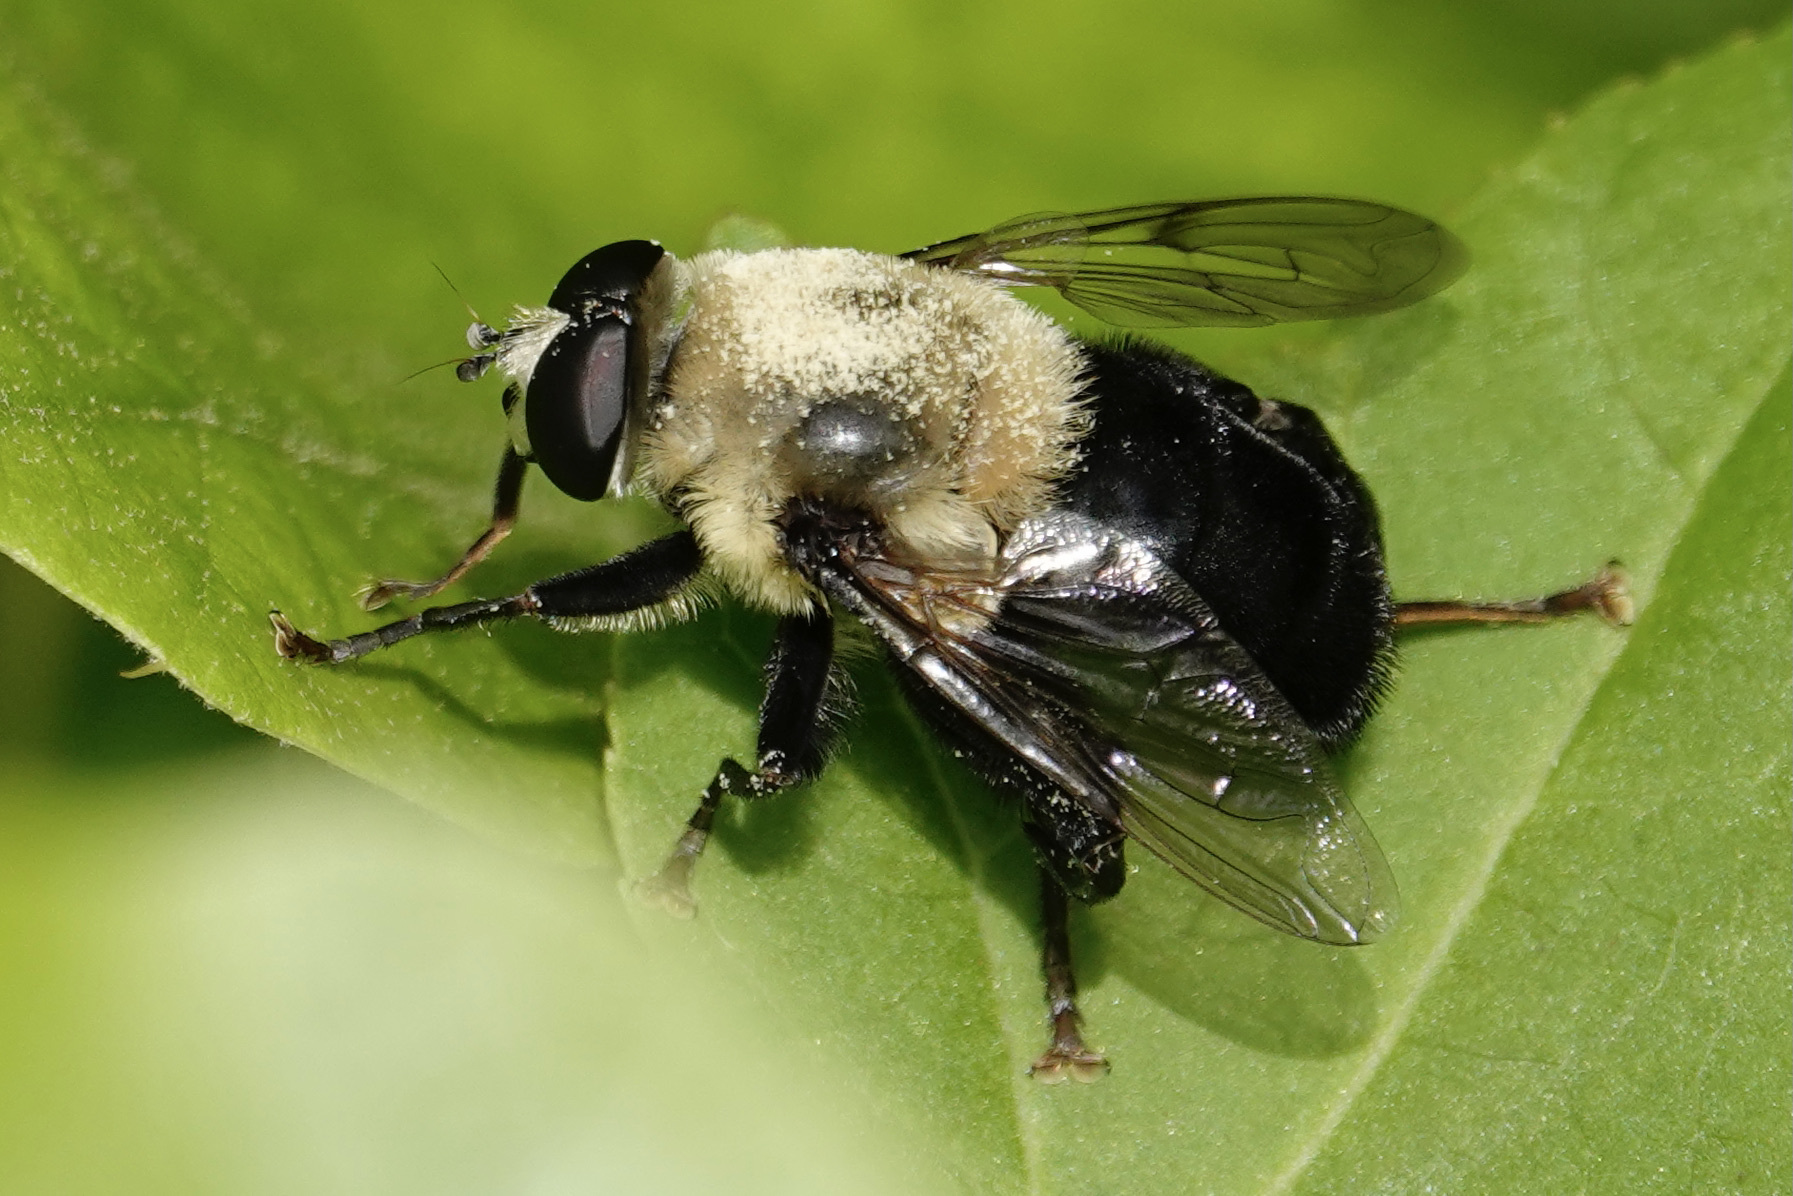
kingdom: Animalia
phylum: Arthropoda
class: Insecta
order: Diptera
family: Syrphidae
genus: Imatisma
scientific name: Imatisma bautias
